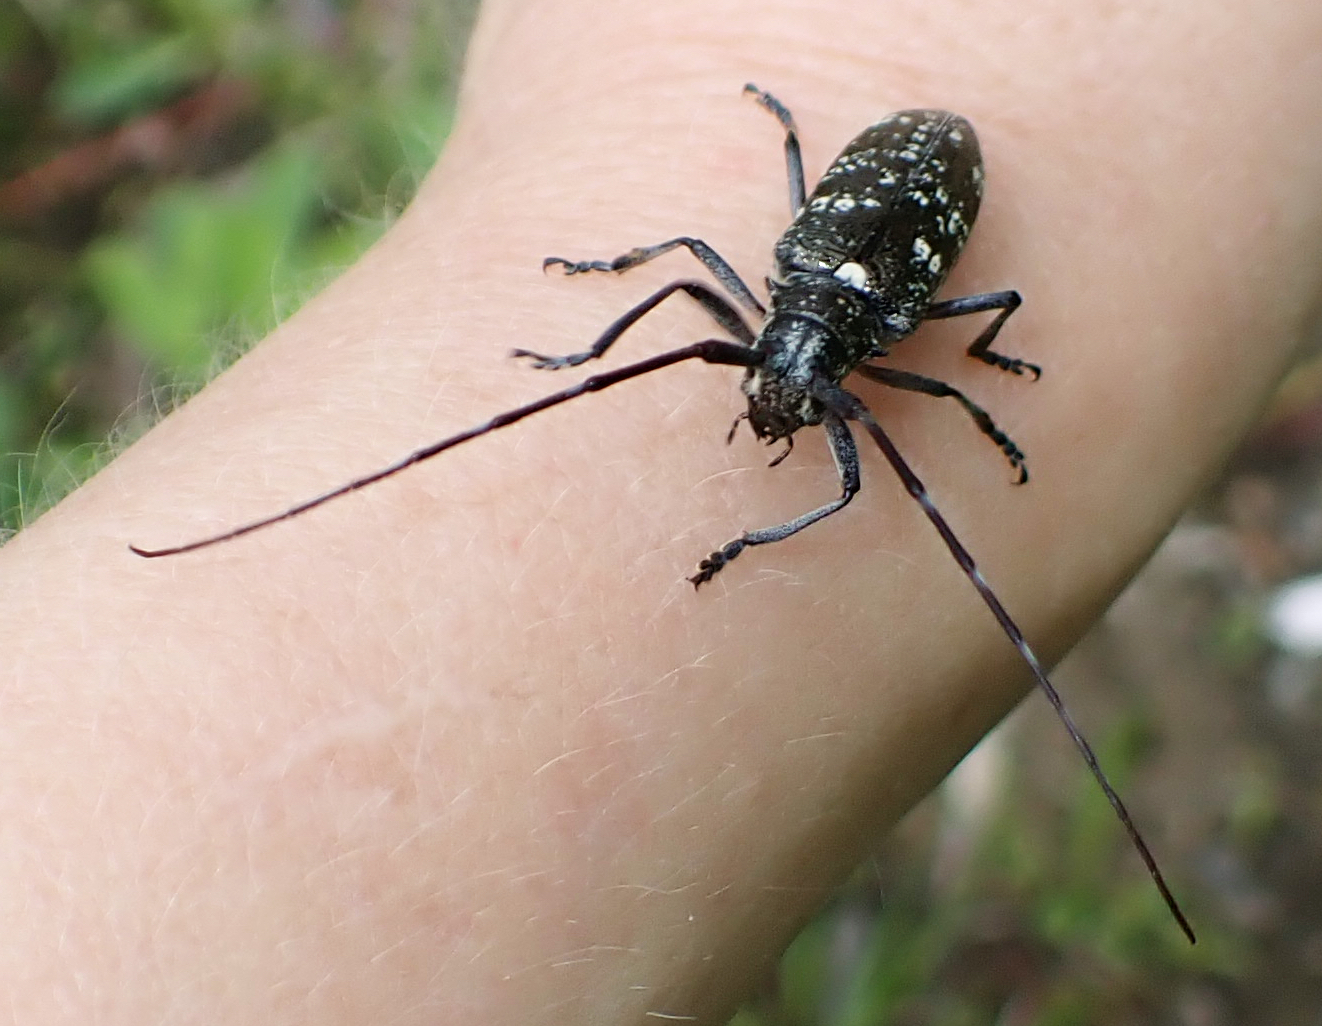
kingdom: Animalia
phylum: Arthropoda
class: Insecta
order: Coleoptera
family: Cerambycidae
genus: Monochamus
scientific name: Monochamus scutellatus
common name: White-spotted sawyer beetle
